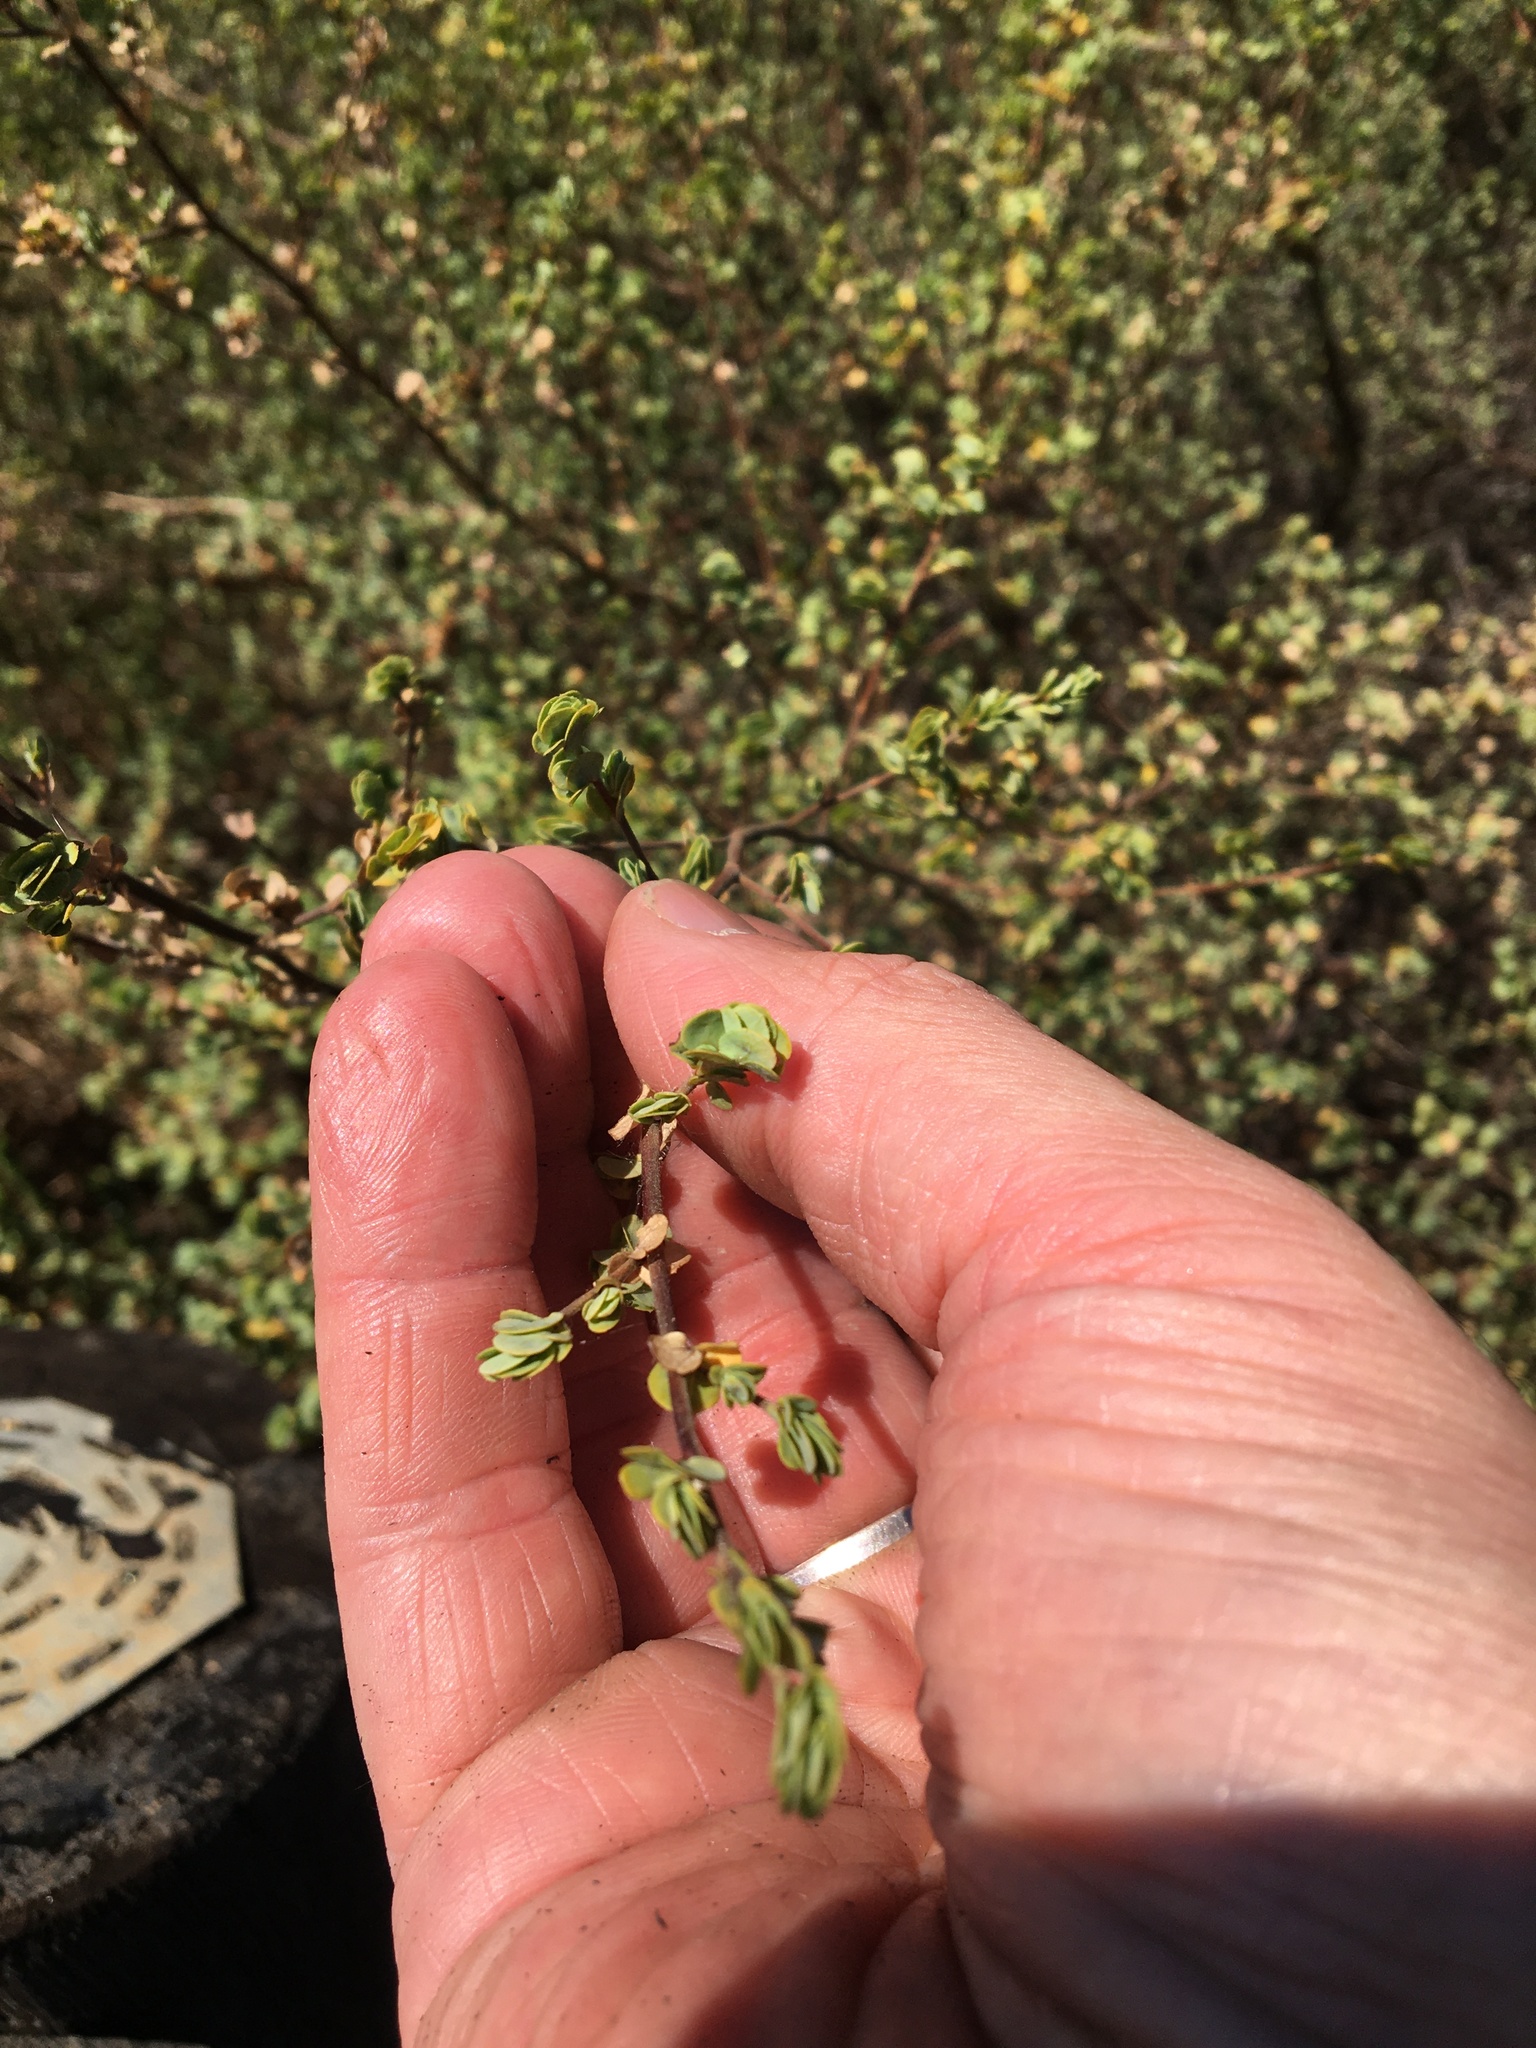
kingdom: Plantae
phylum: Tracheophyta
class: Magnoliopsida
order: Rosales
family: Rosaceae
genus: Cliffortia
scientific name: Cliffortia obcordata
